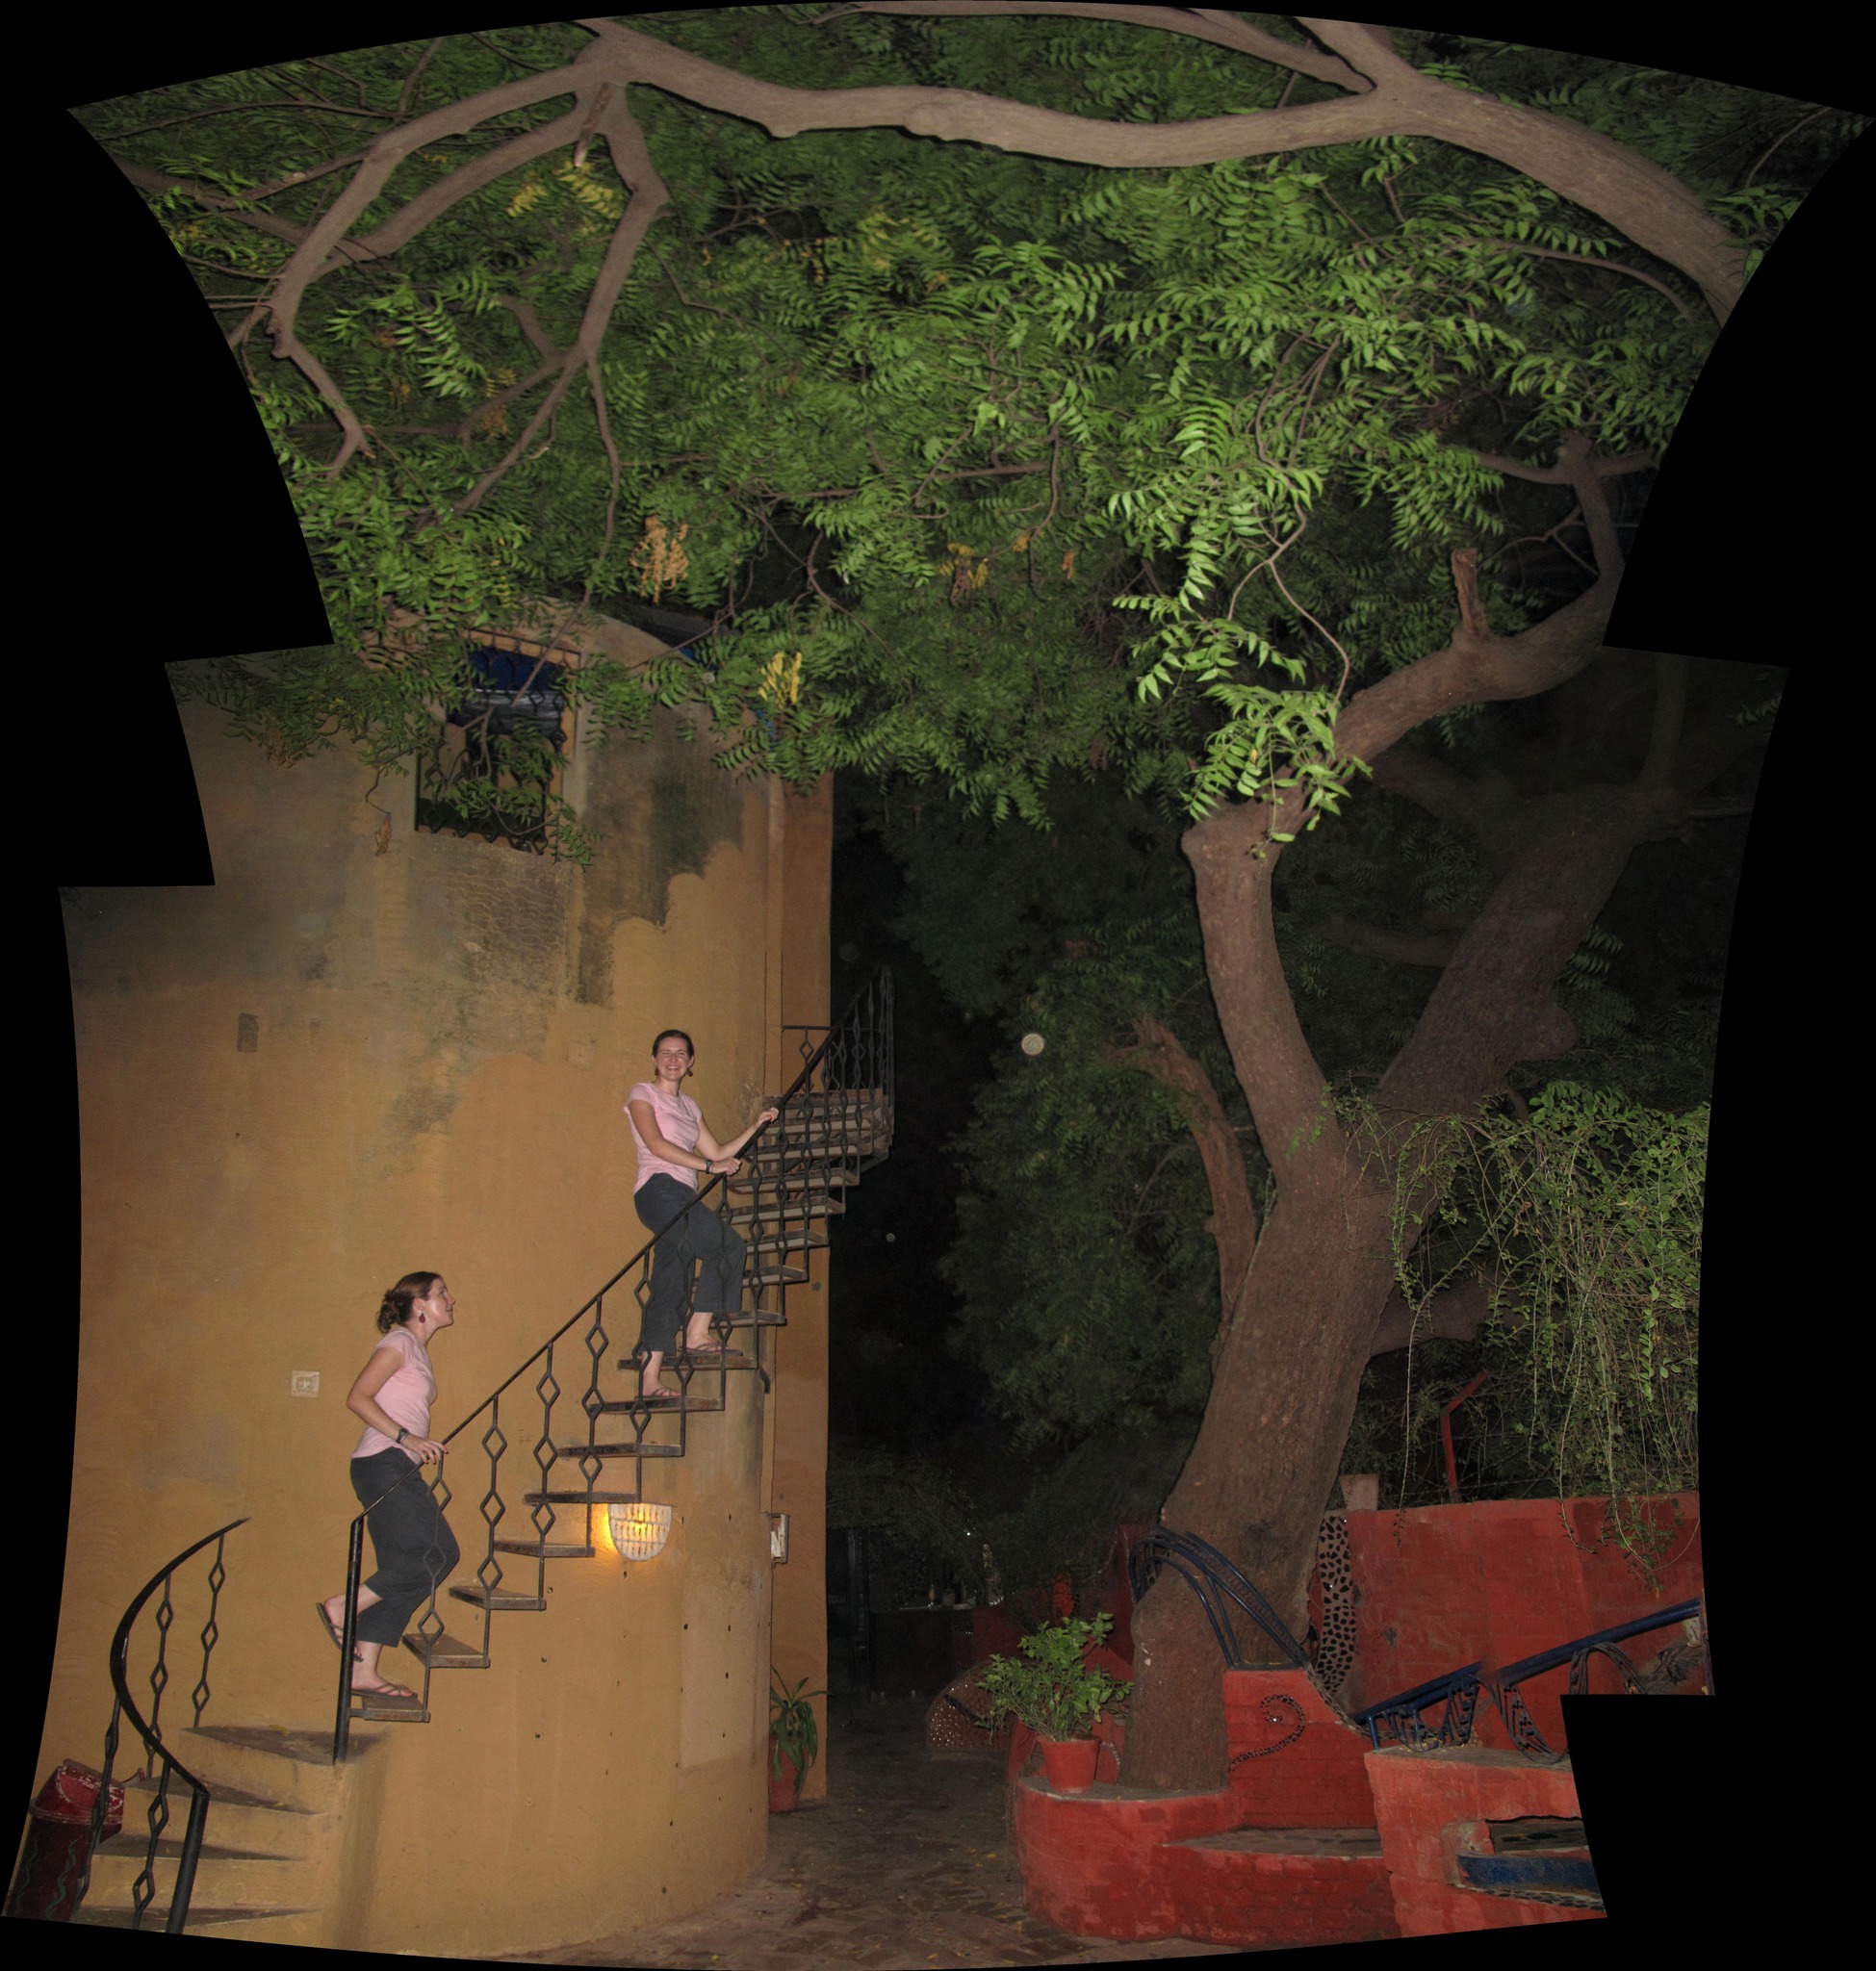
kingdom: Plantae
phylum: Tracheophyta
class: Magnoliopsida
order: Sapindales
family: Meliaceae
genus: Azadirachta
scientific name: Azadirachta indica
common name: Neem
